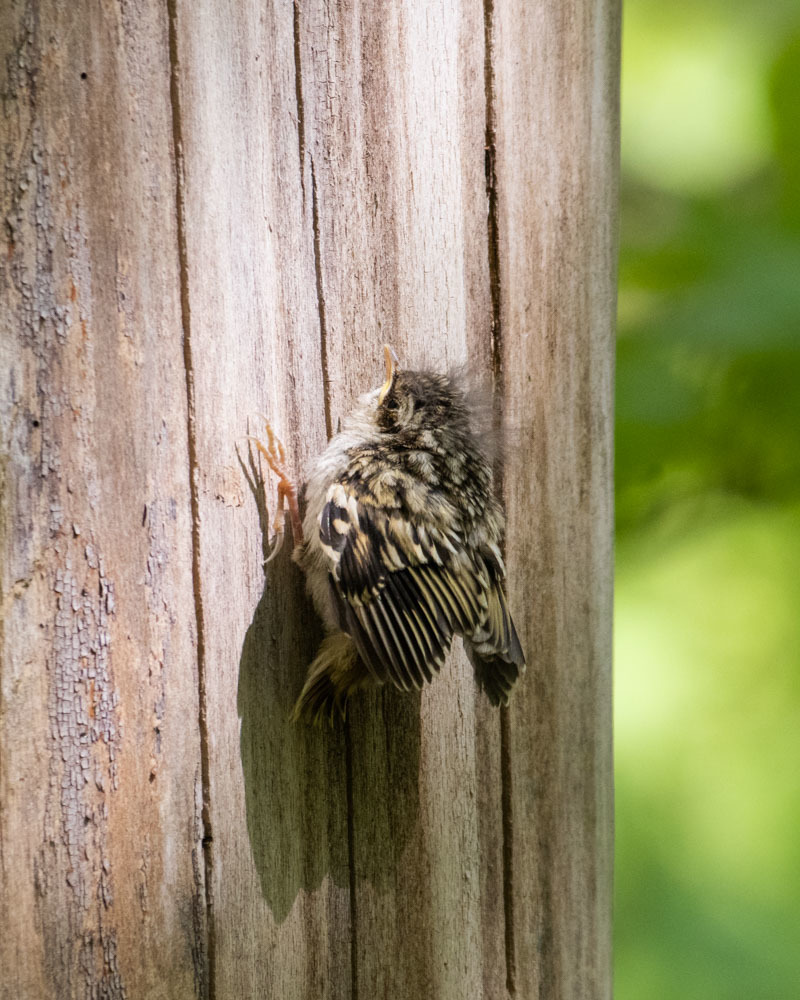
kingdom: Animalia
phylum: Chordata
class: Aves
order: Passeriformes
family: Certhiidae
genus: Certhia
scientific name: Certhia familiaris
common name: Eurasian treecreeper
